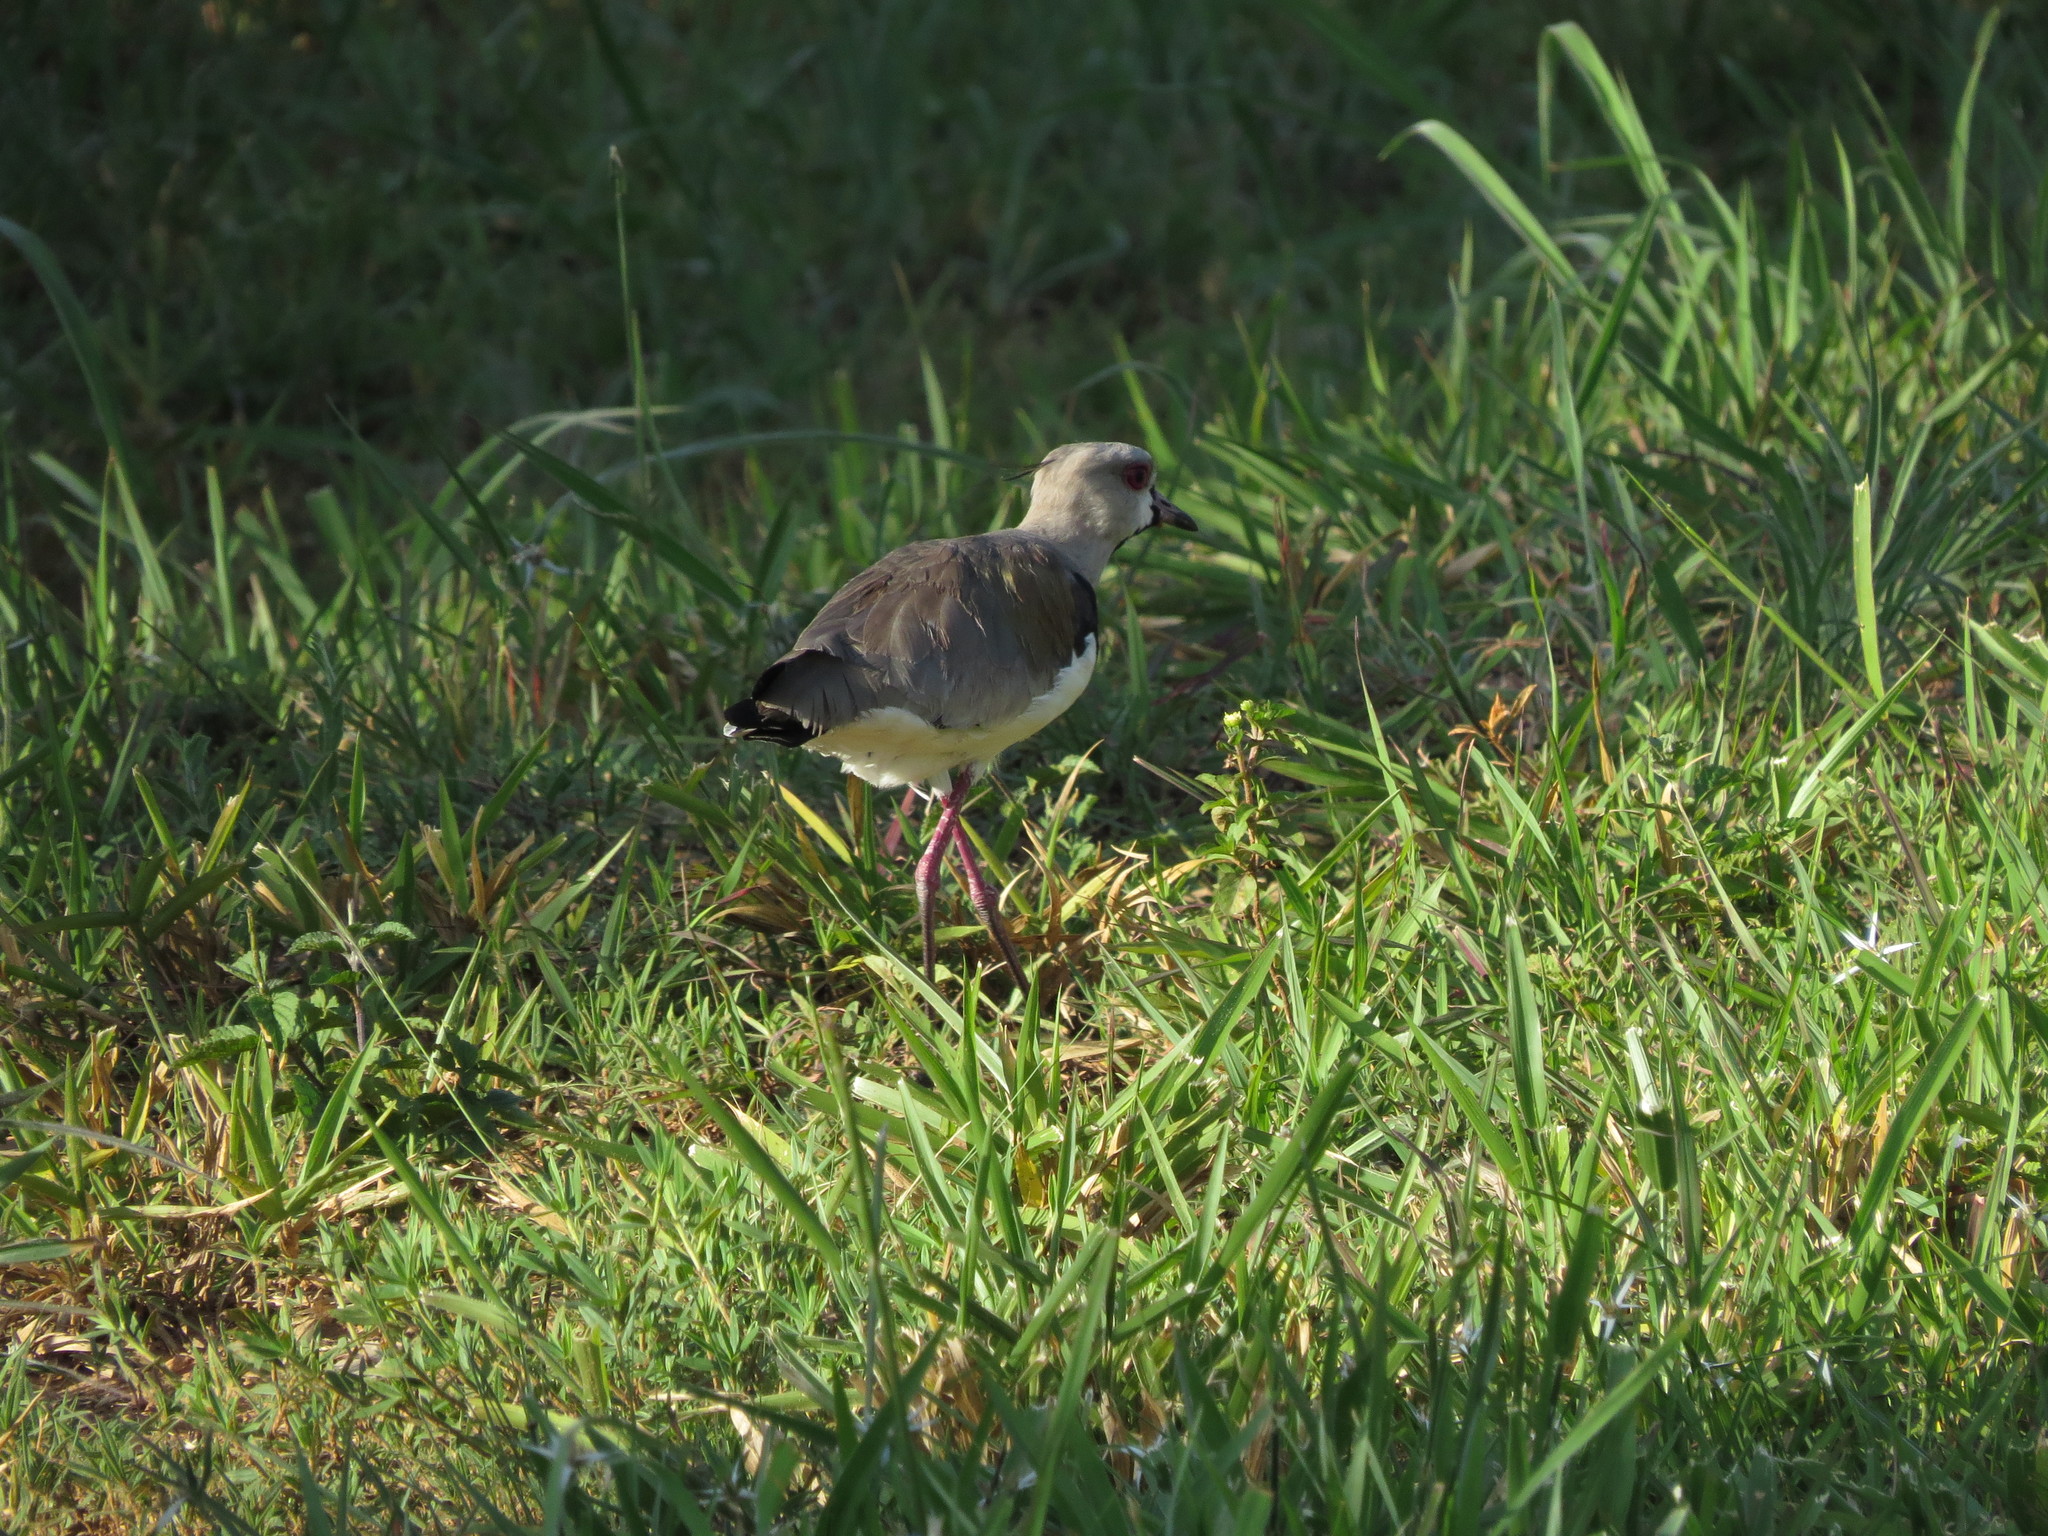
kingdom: Animalia
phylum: Chordata
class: Aves
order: Charadriiformes
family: Charadriidae
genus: Vanellus
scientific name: Vanellus chilensis
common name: Southern lapwing
